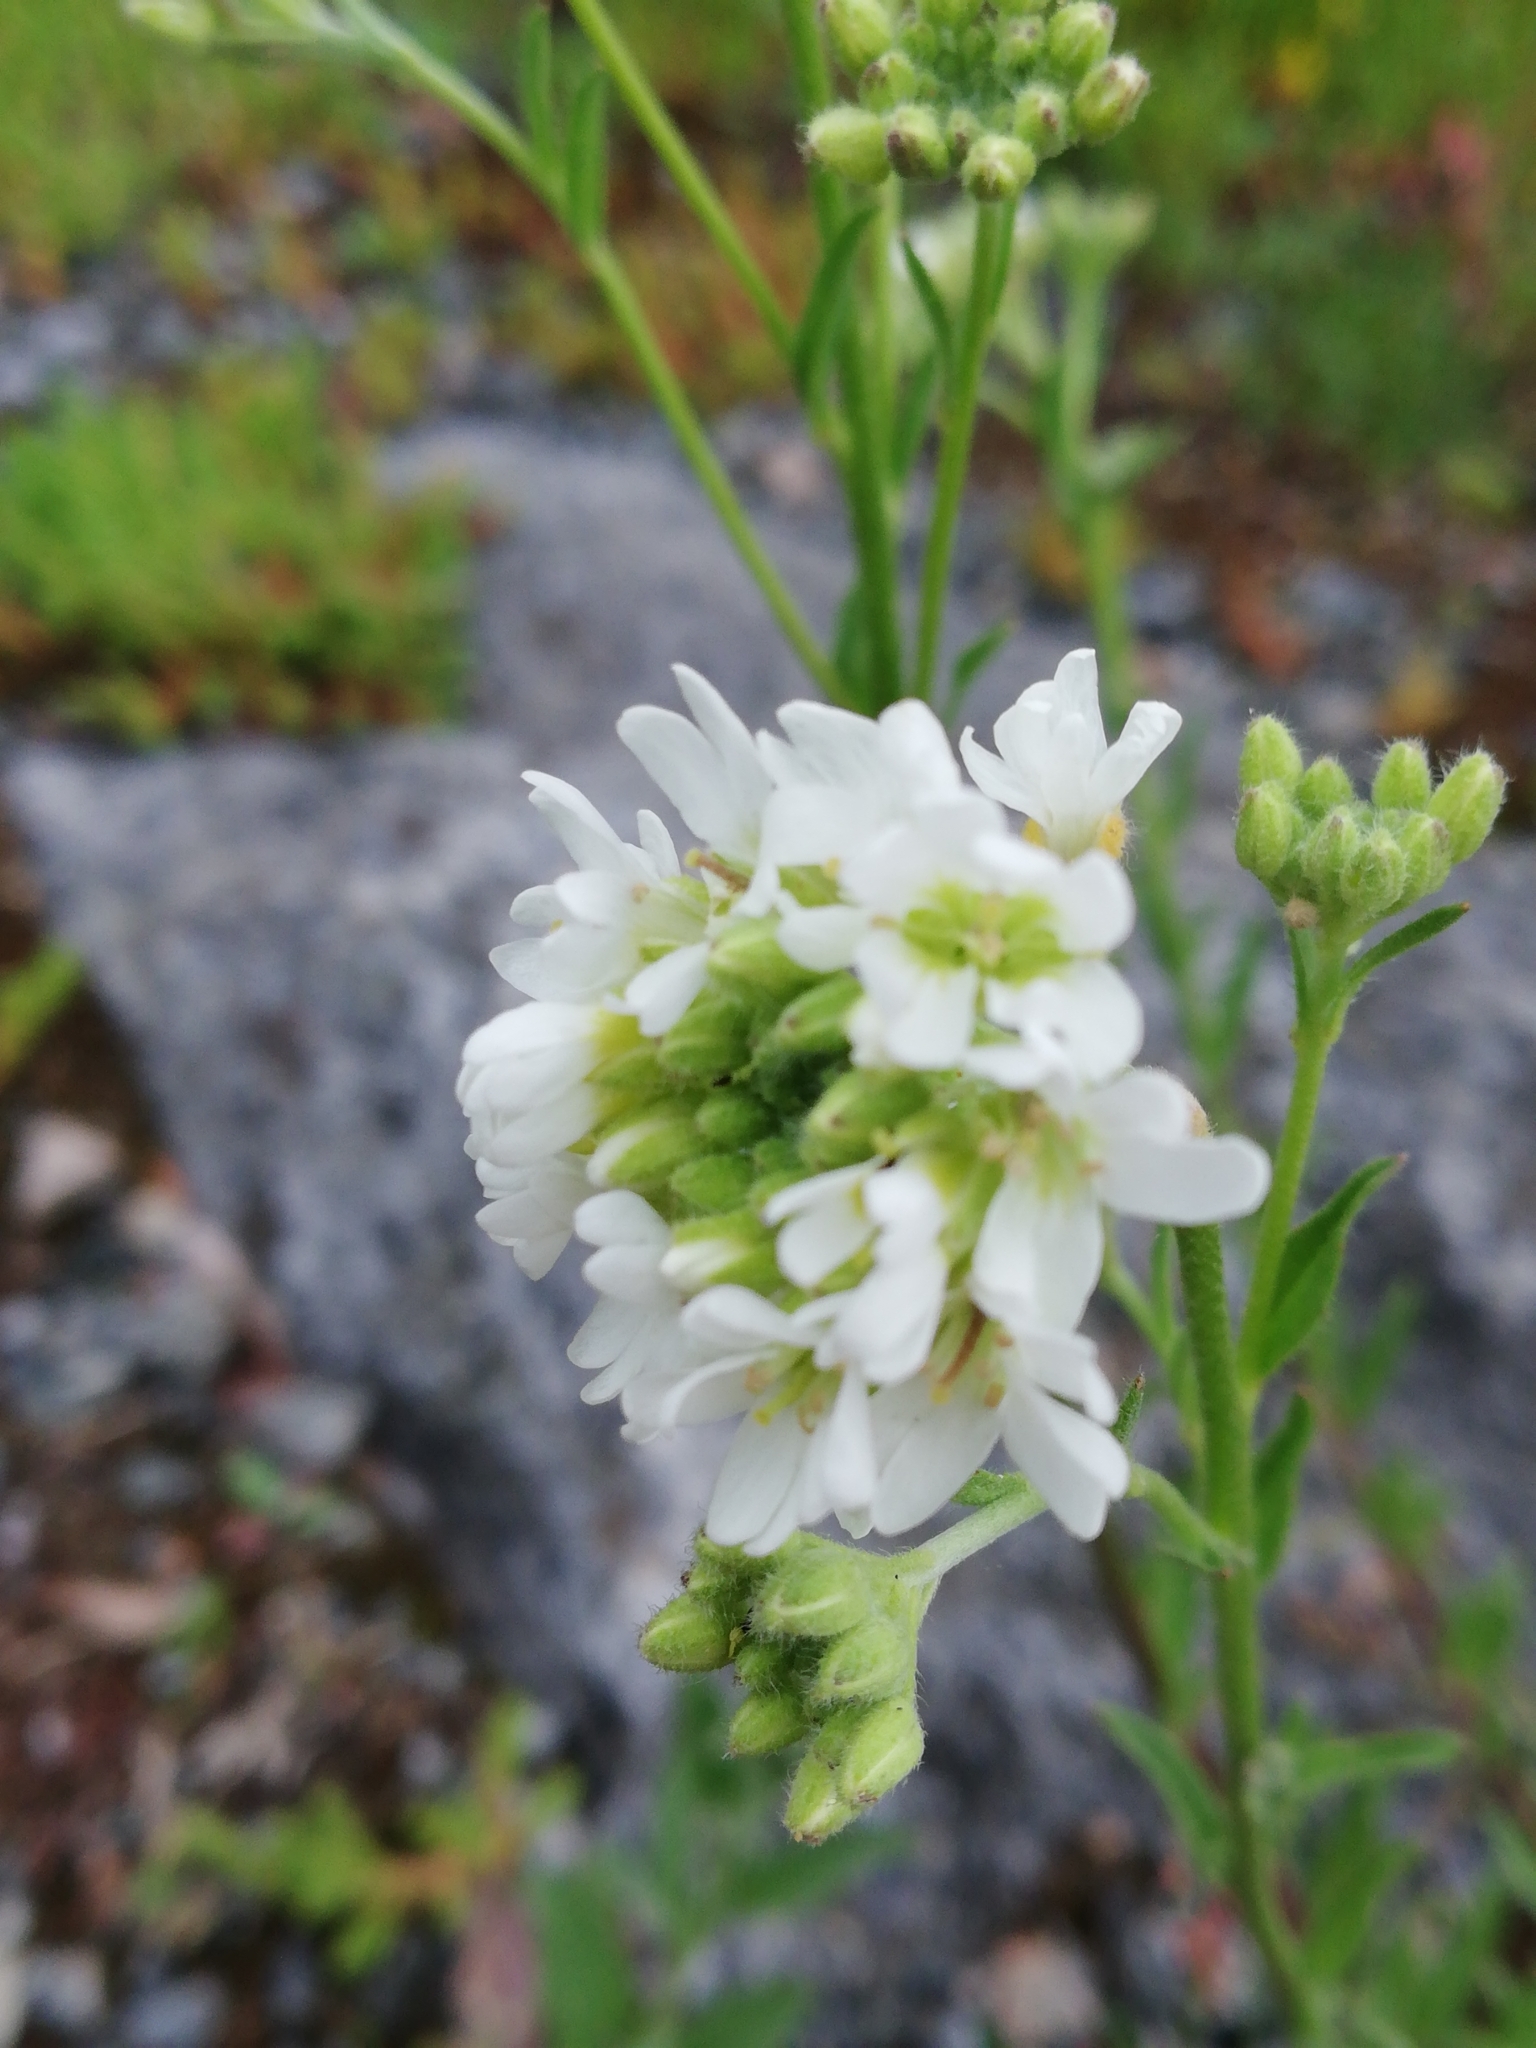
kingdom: Plantae
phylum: Tracheophyta
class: Magnoliopsida
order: Brassicales
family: Brassicaceae
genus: Berteroa
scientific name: Berteroa incana
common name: Hoary alison
